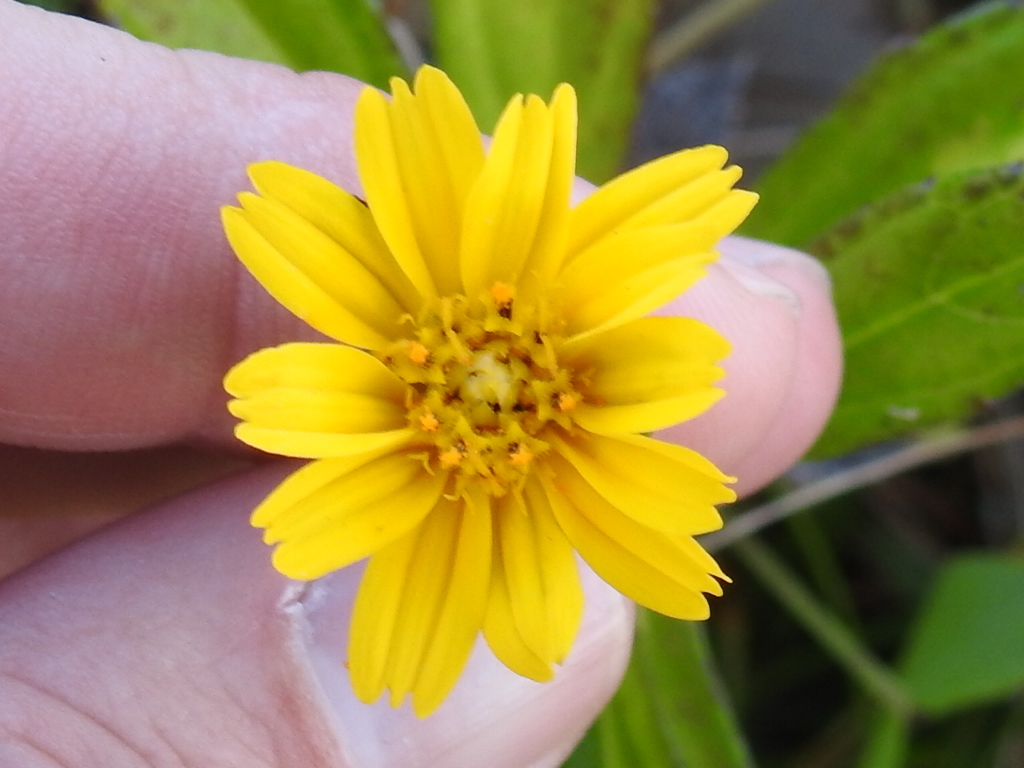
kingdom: Plantae
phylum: Tracheophyta
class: Magnoliopsida
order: Asterales
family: Asteraceae
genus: Sphagneticola
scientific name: Sphagneticola trilobata
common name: Bay biscayne creeping-oxeye
